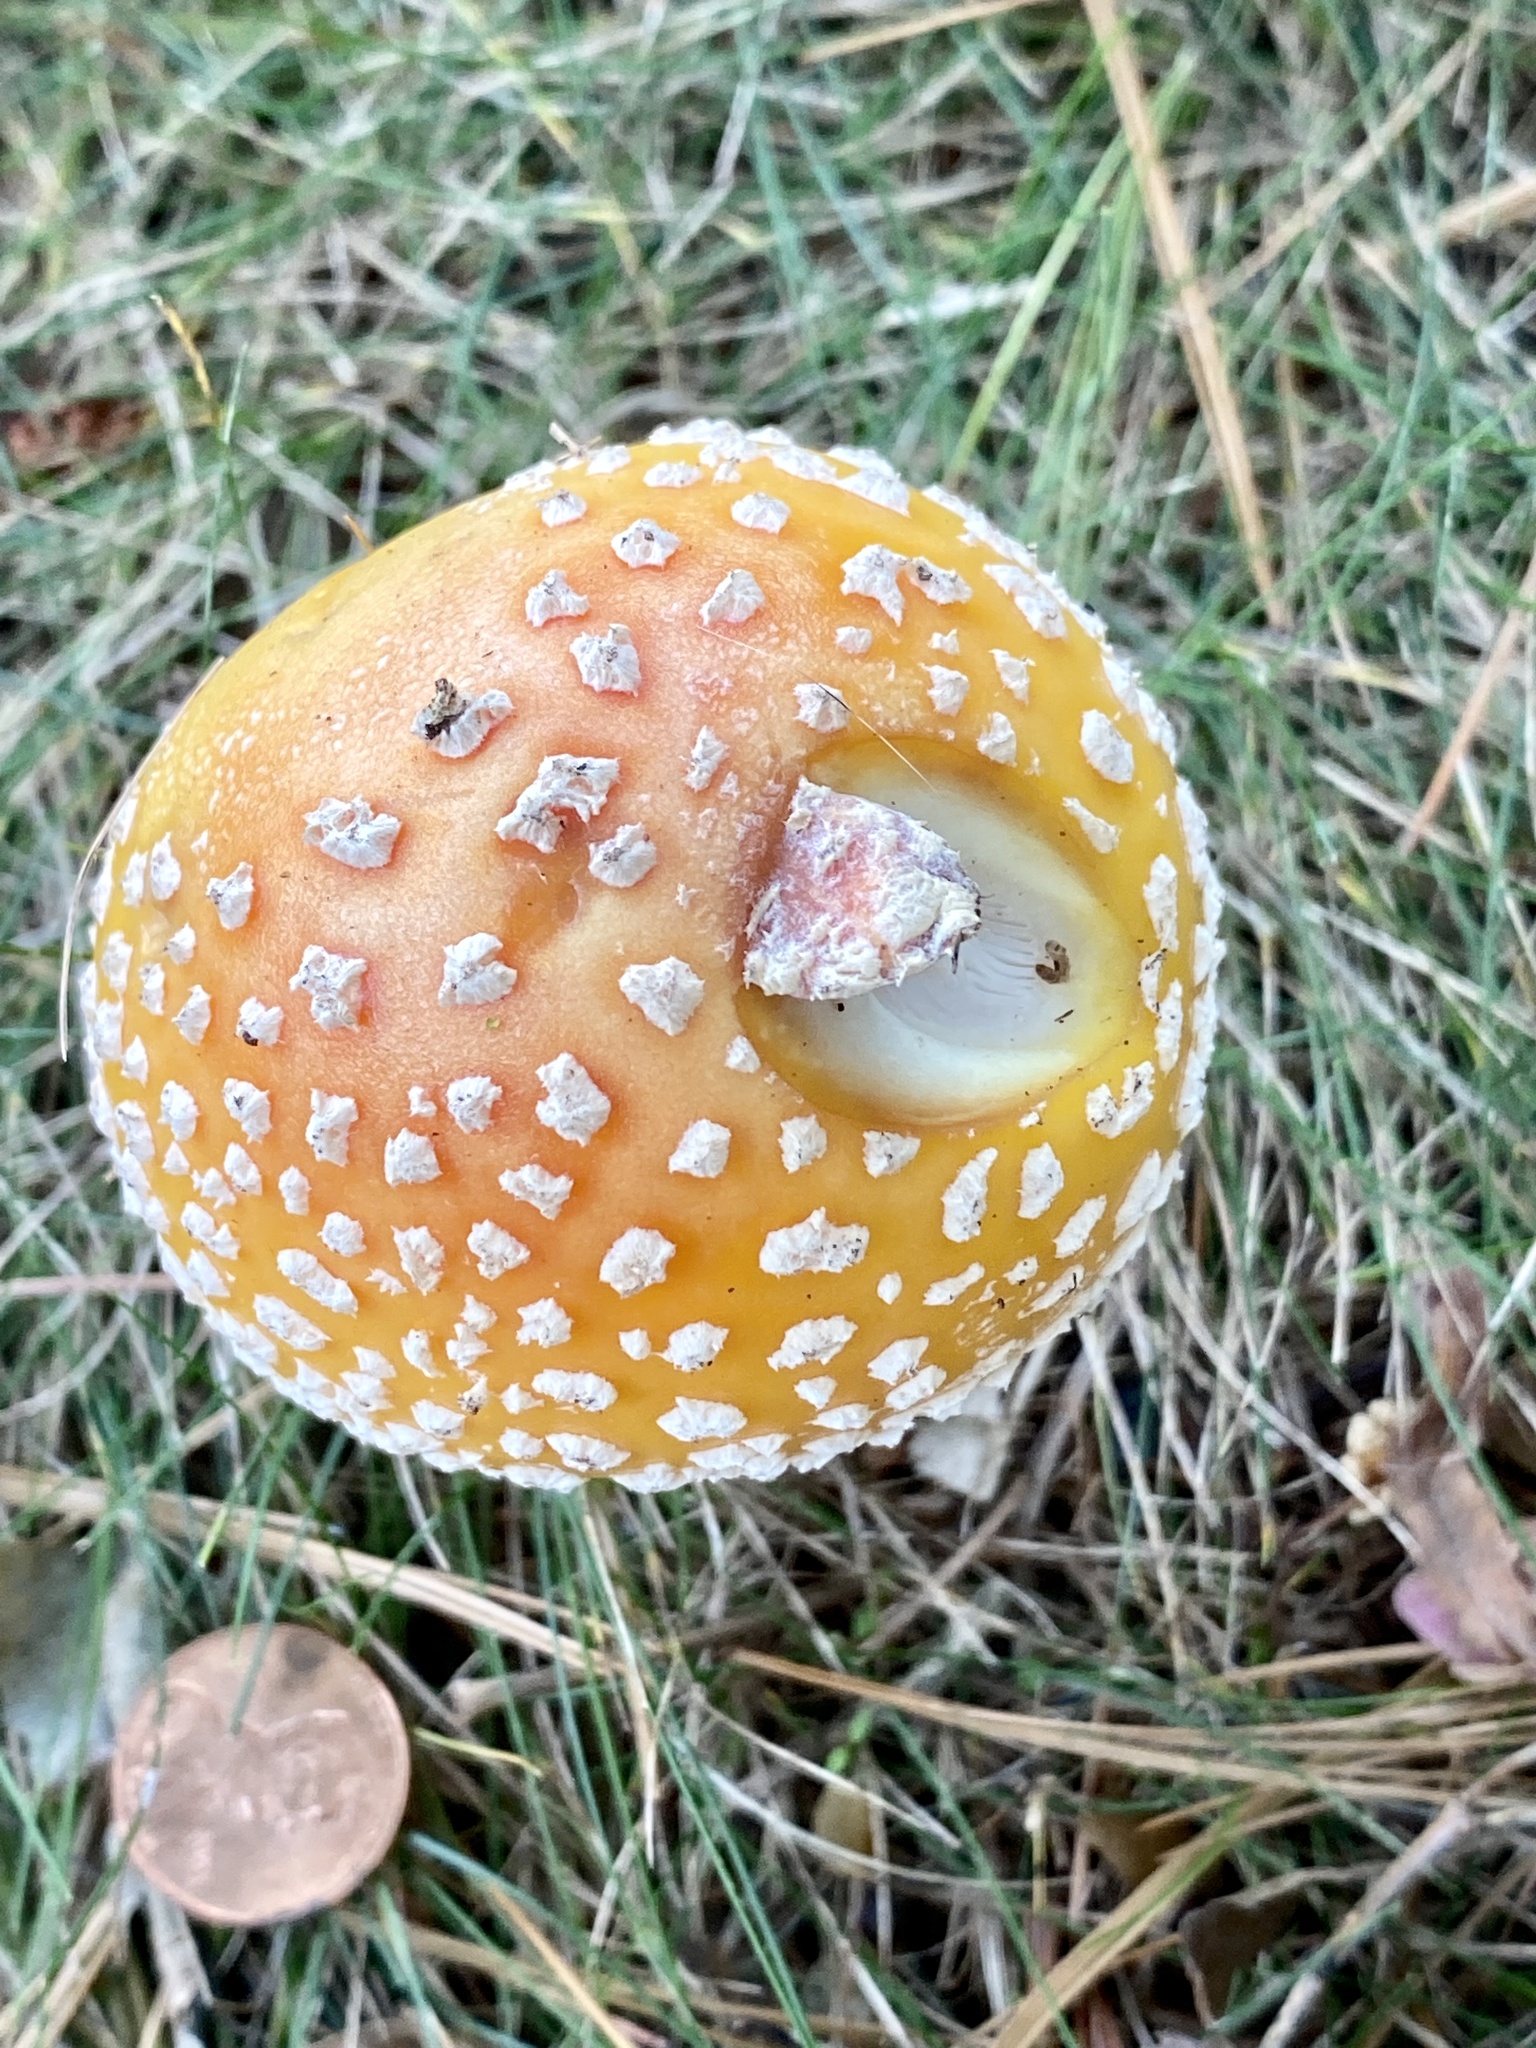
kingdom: Fungi
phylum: Basidiomycota
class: Agaricomycetes
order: Agaricales
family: Amanitaceae
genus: Amanita
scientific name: Amanita muscaria
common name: Fly agaric
